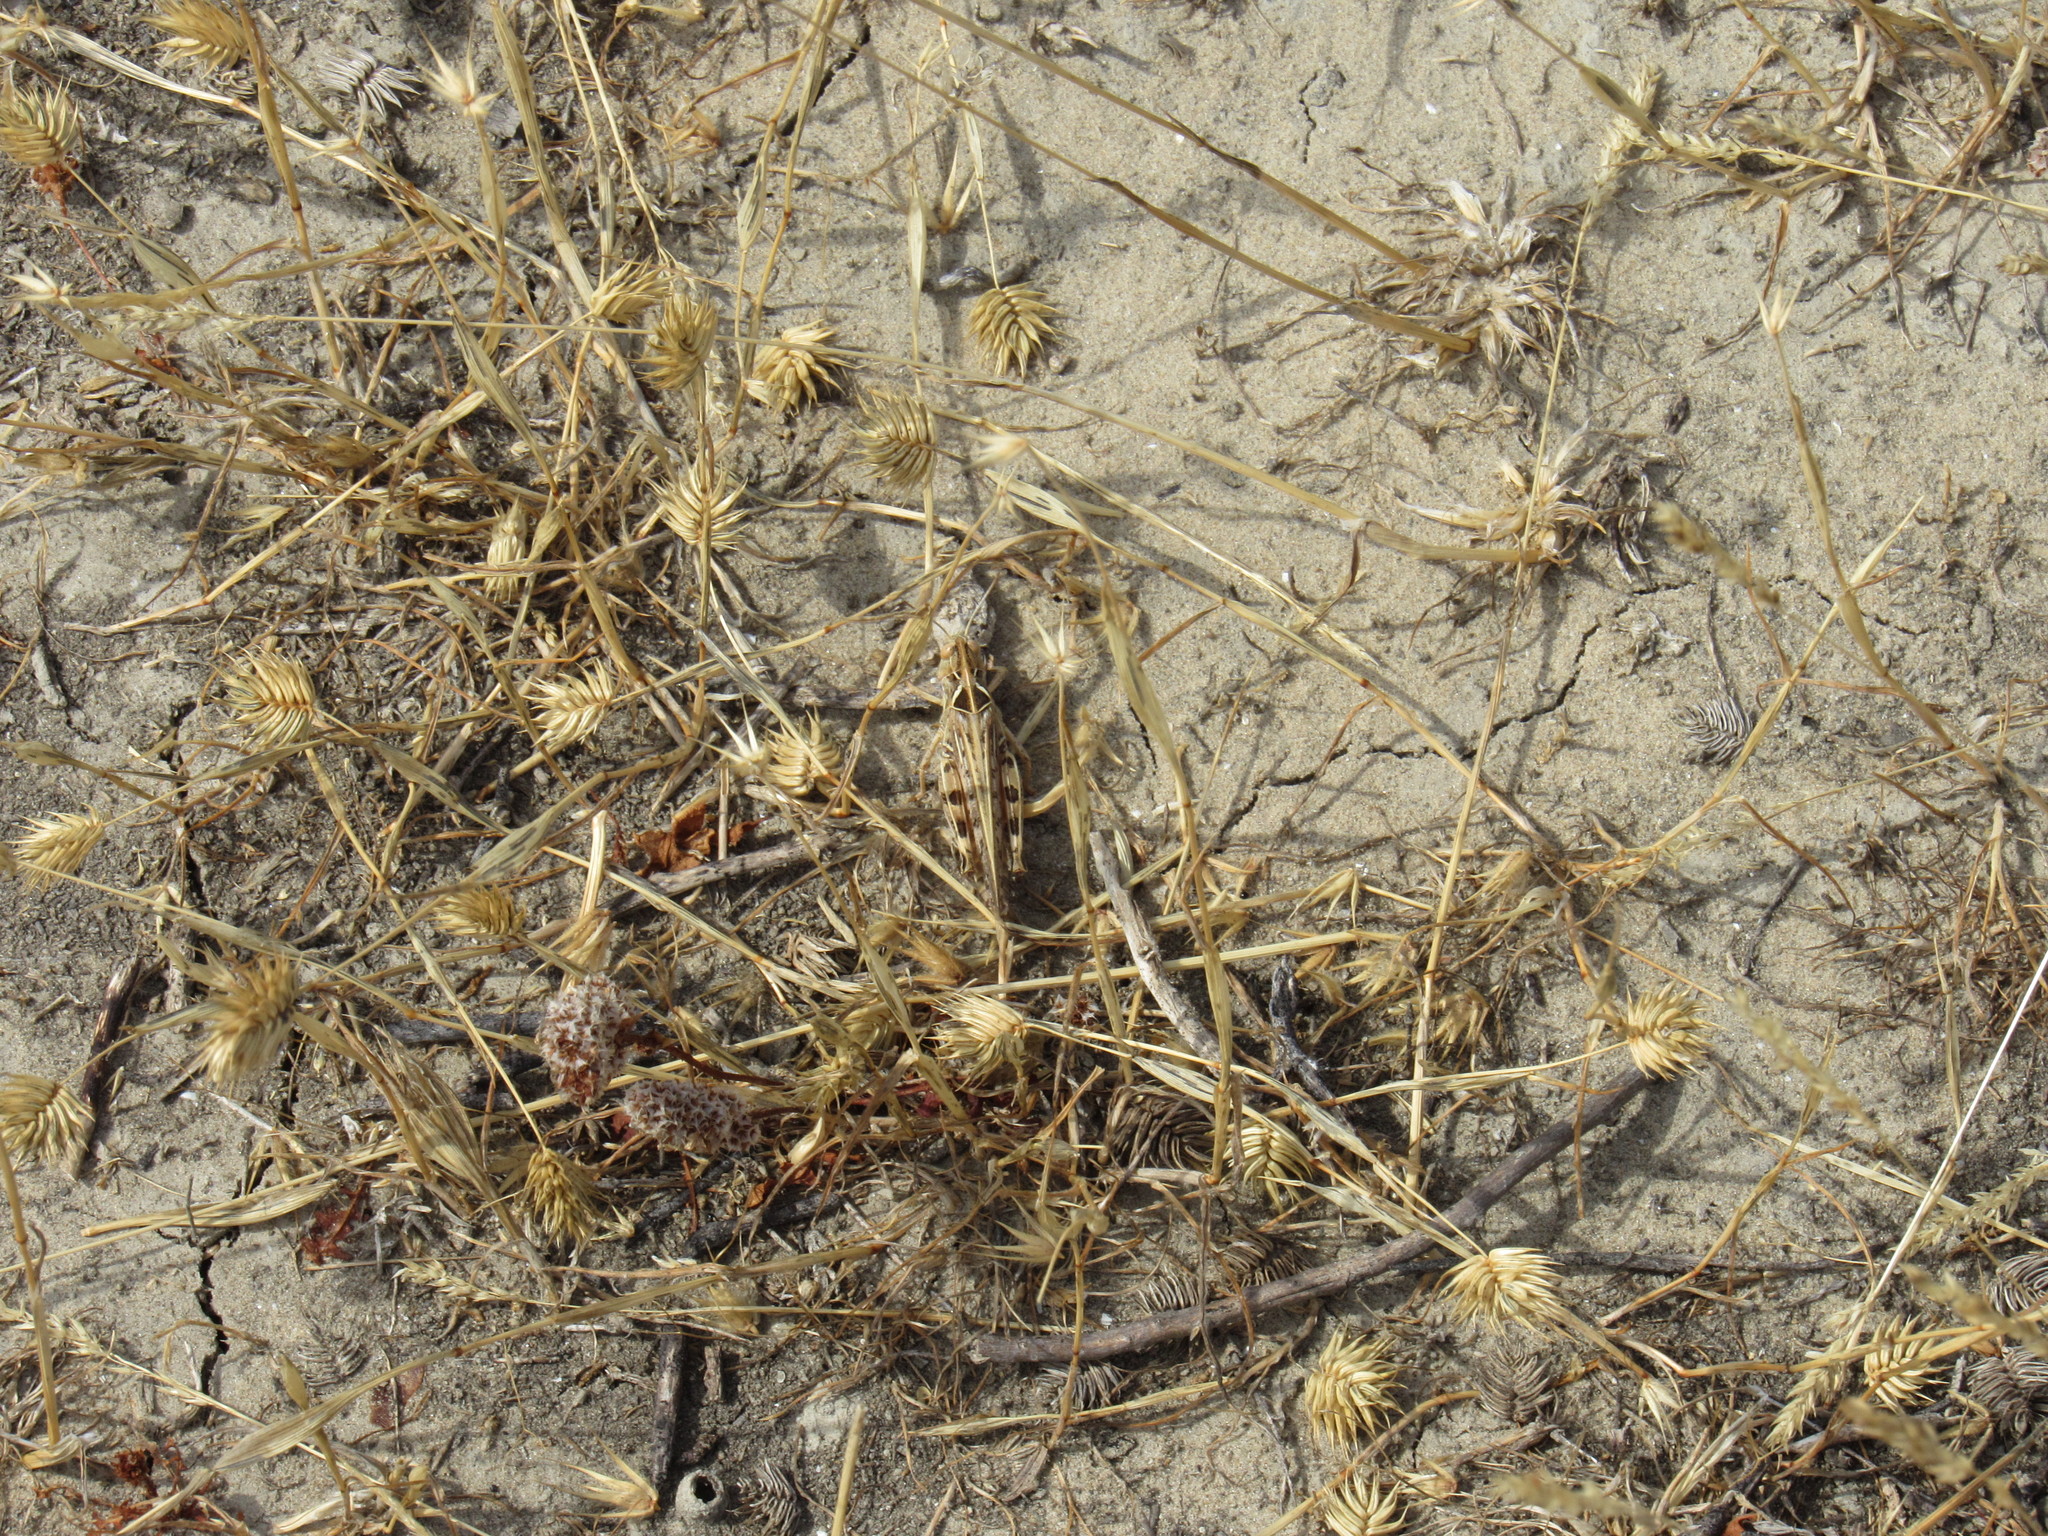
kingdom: Animalia
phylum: Arthropoda
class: Insecta
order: Orthoptera
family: Acrididae
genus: Dociostaurus
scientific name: Dociostaurus maroccanus
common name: Moroccan locust
